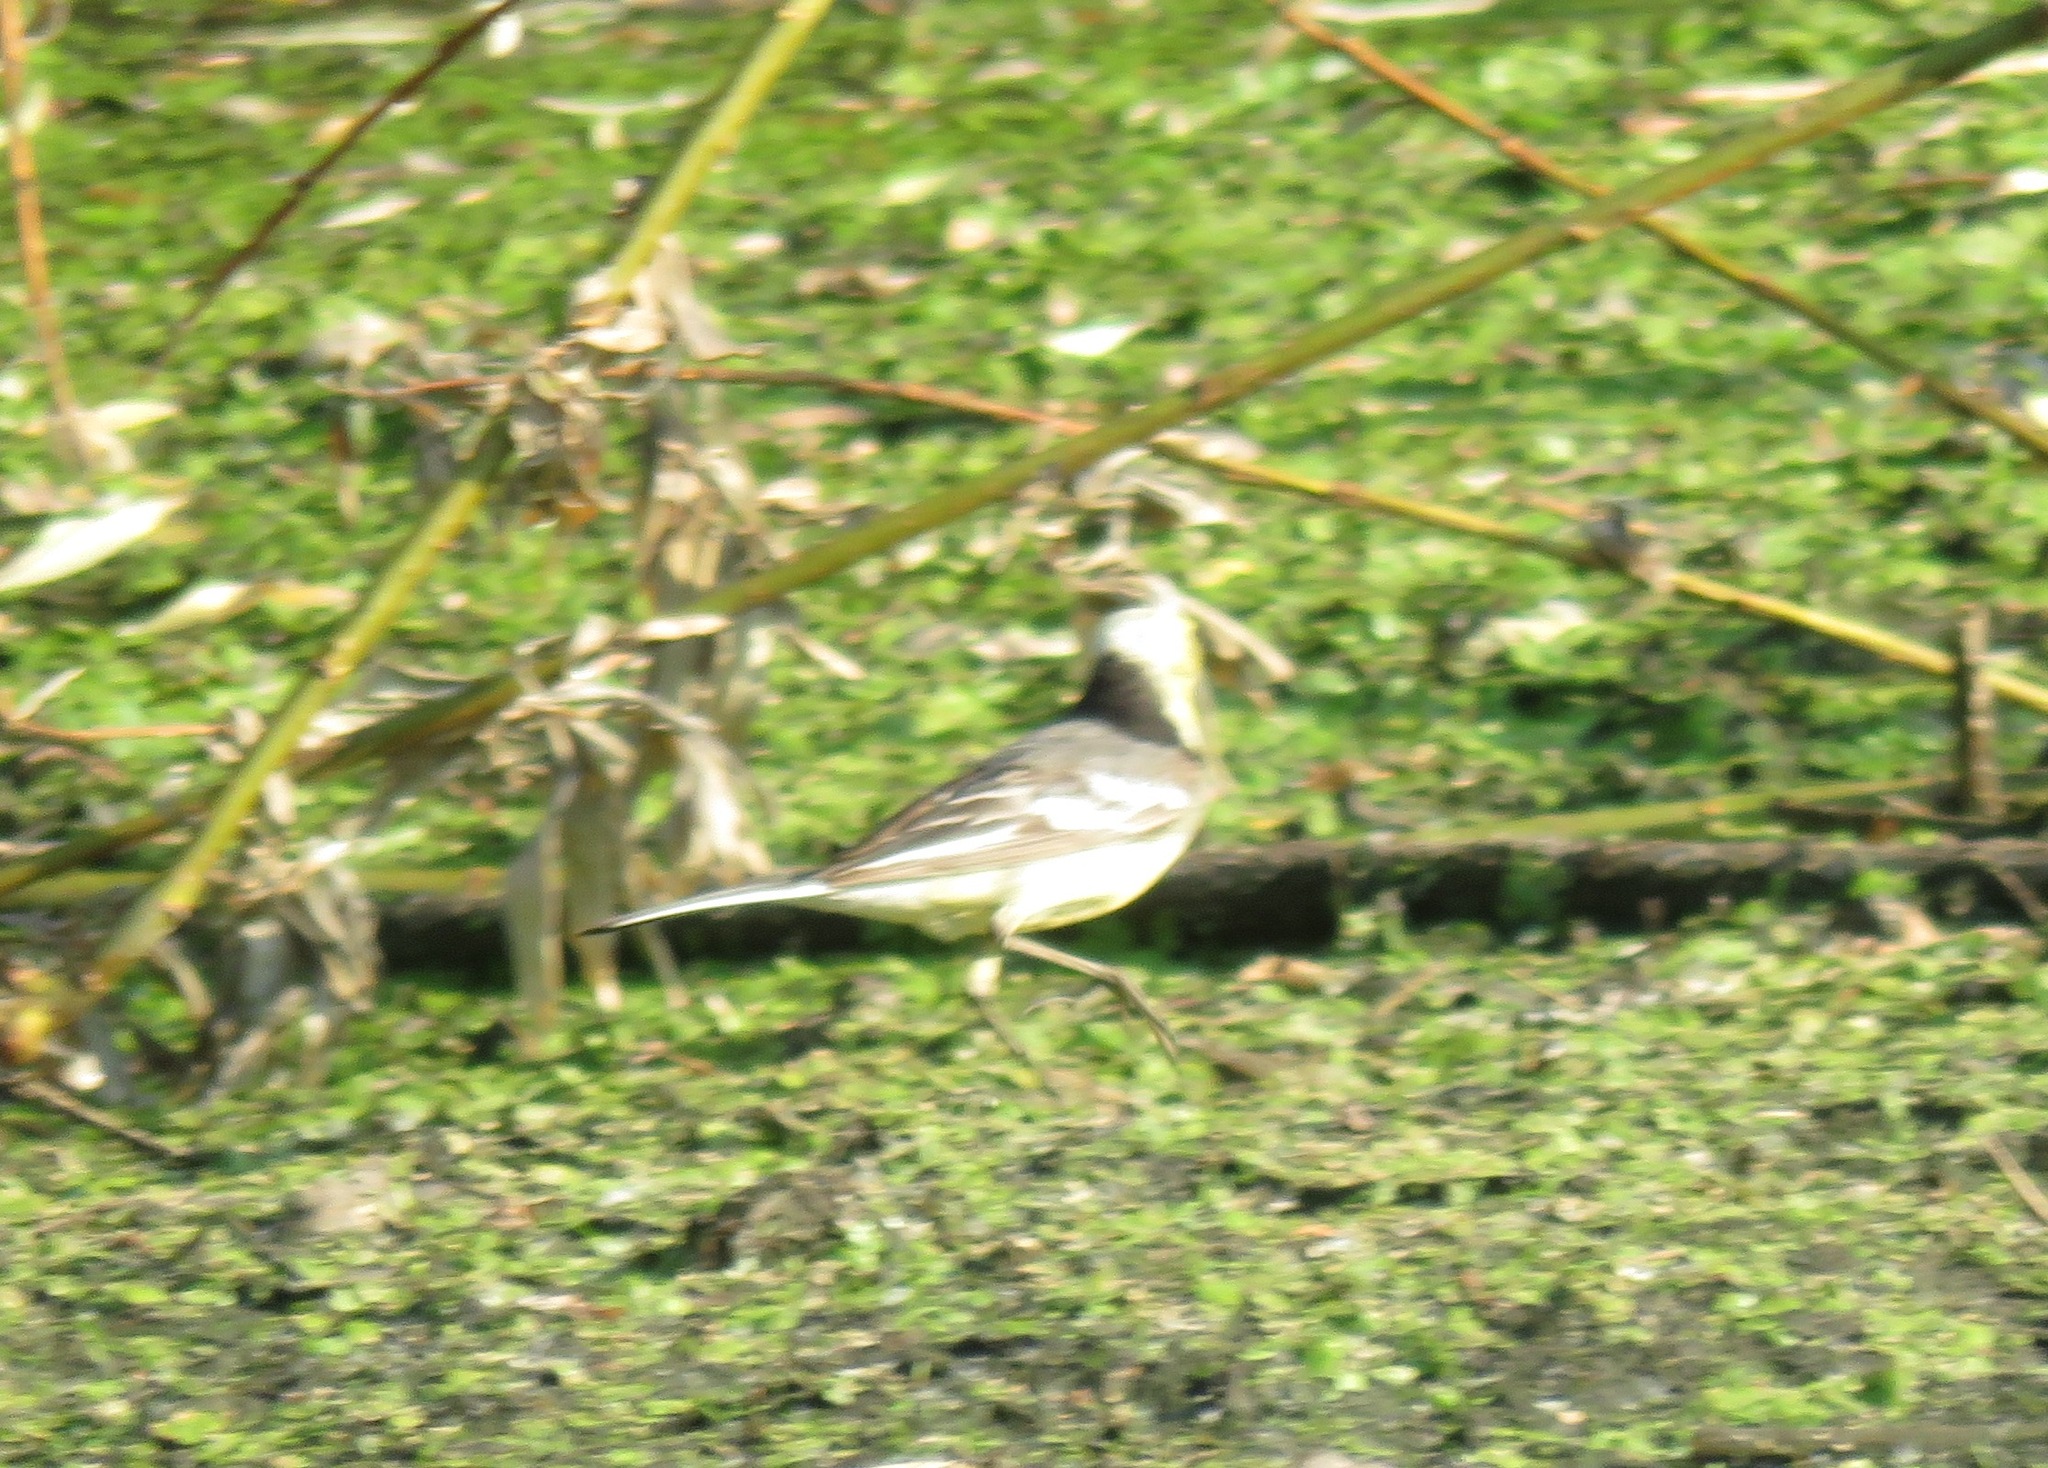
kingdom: Animalia
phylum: Chordata
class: Aves
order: Passeriformes
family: Motacillidae
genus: Motacilla
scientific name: Motacilla citreola
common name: Citrine wagtail
